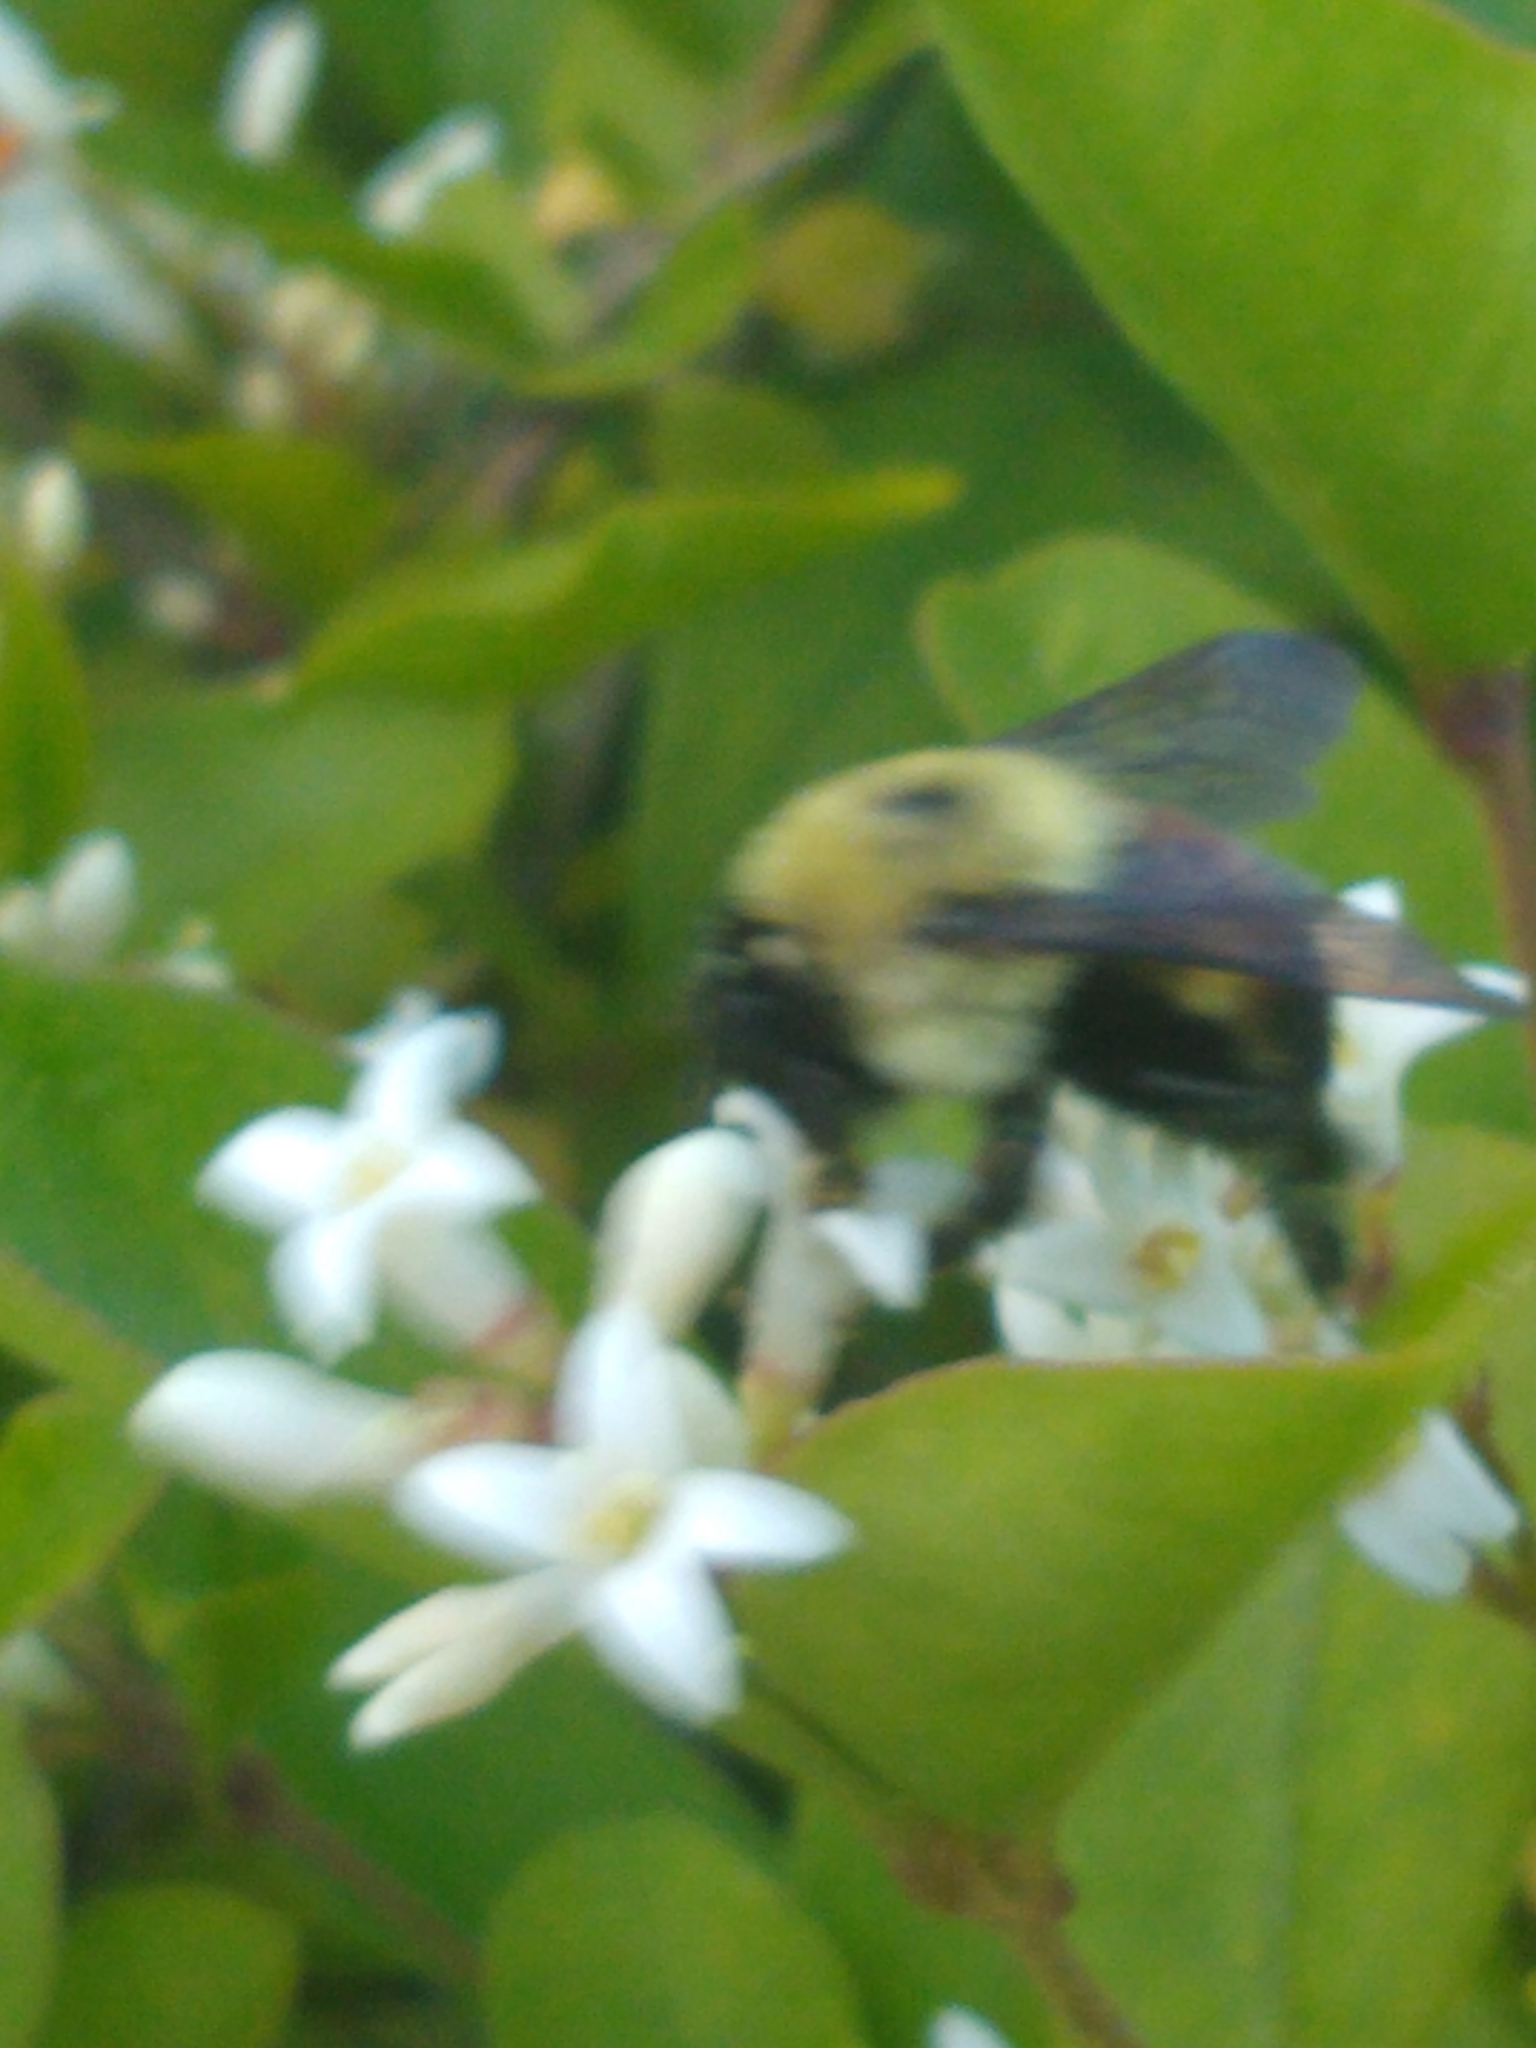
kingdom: Animalia
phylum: Arthropoda
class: Insecta
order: Hymenoptera
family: Apidae
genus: Bombus
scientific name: Bombus griseocollis
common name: Brown-belted bumble bee
